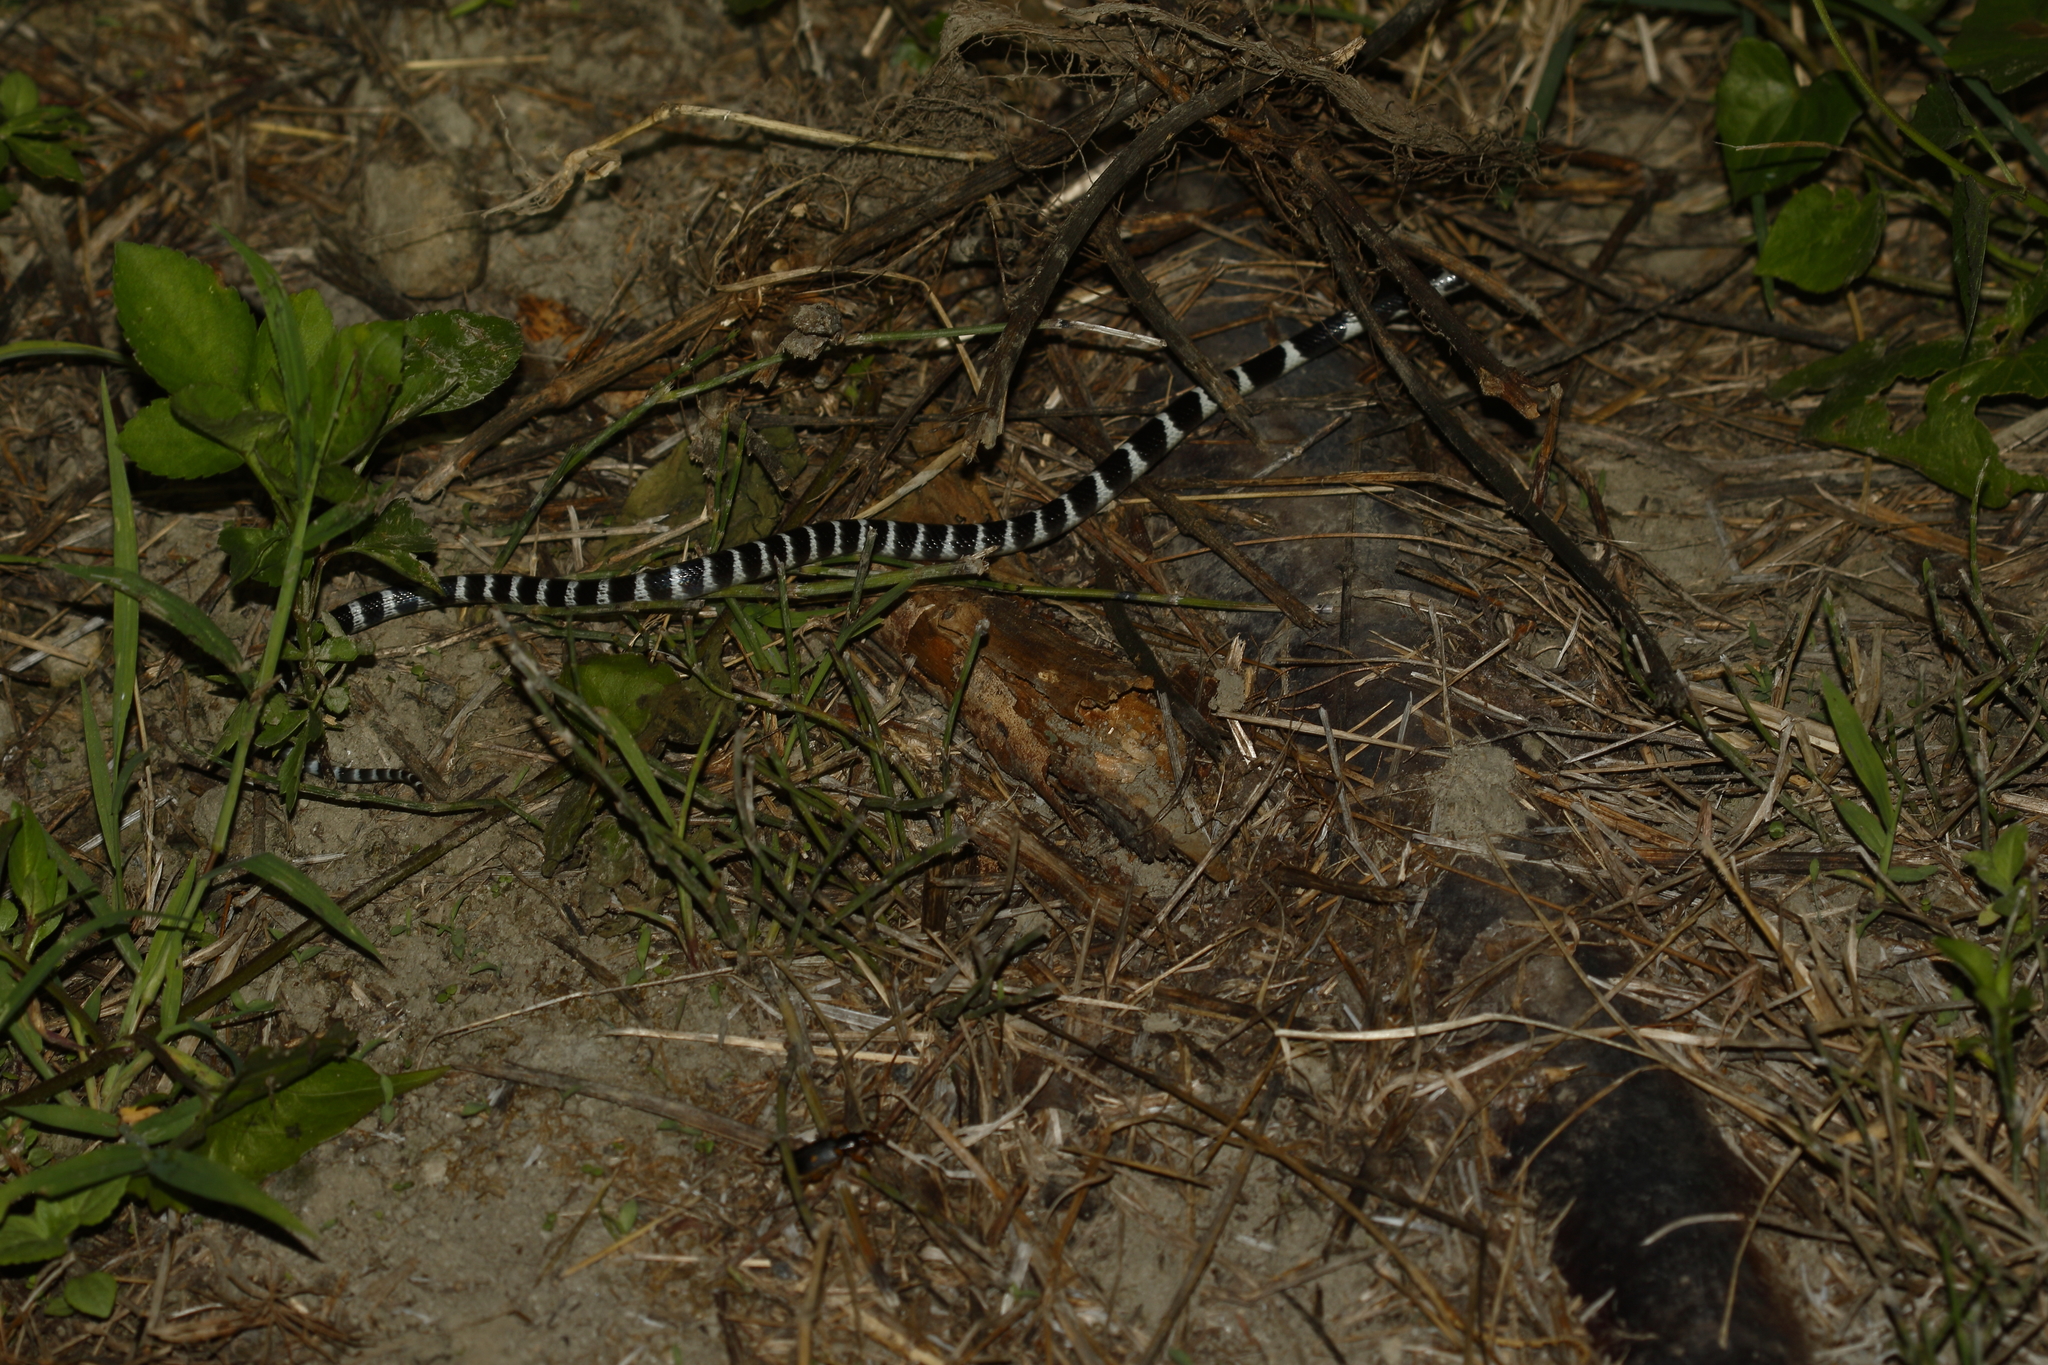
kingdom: Animalia
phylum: Chordata
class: Squamata
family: Elapidae
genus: Bungarus
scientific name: Bungarus multicinctus
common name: Many-banded krait
